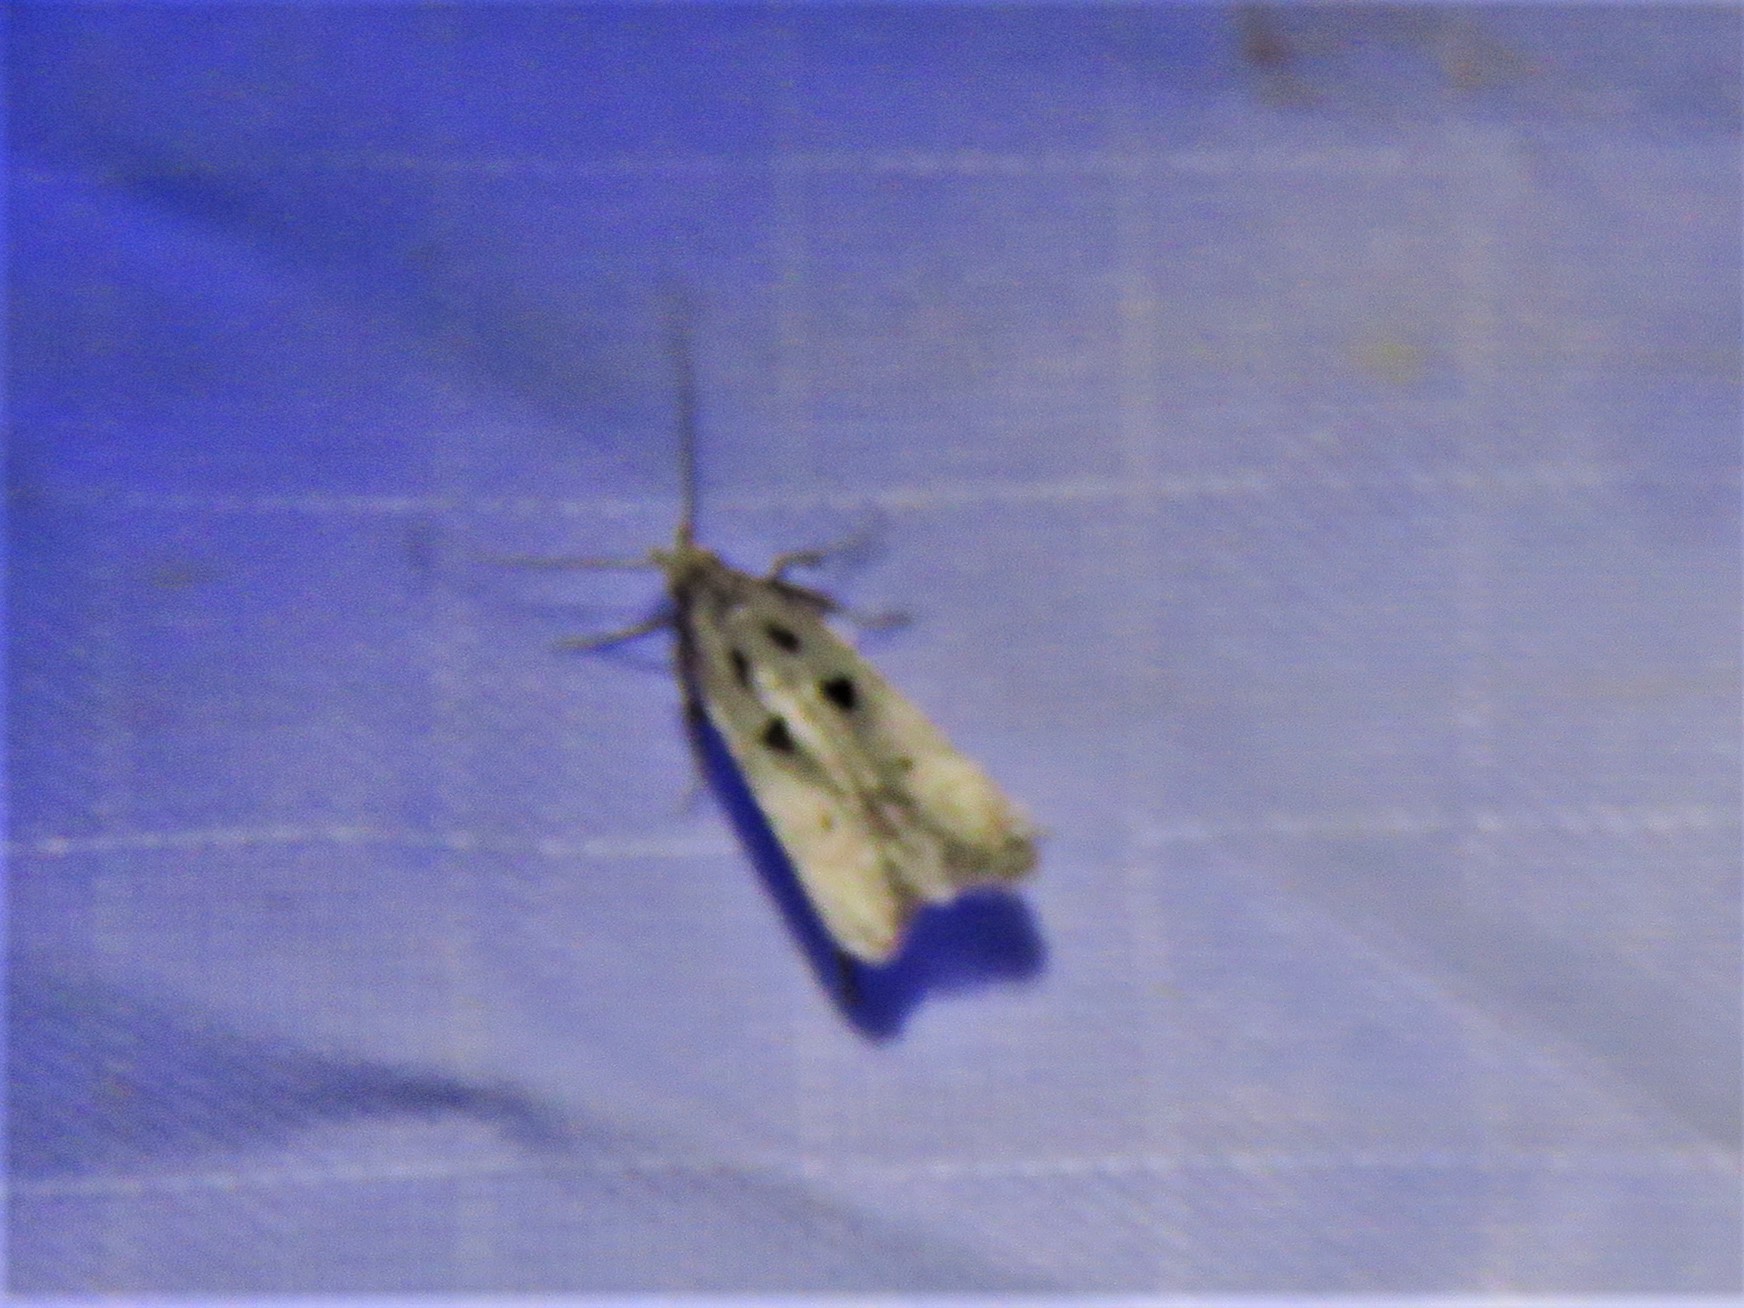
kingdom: Animalia
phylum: Arthropoda
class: Insecta
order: Lepidoptera
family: Gelechiidae
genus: Deltophora
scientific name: Deltophora sella
